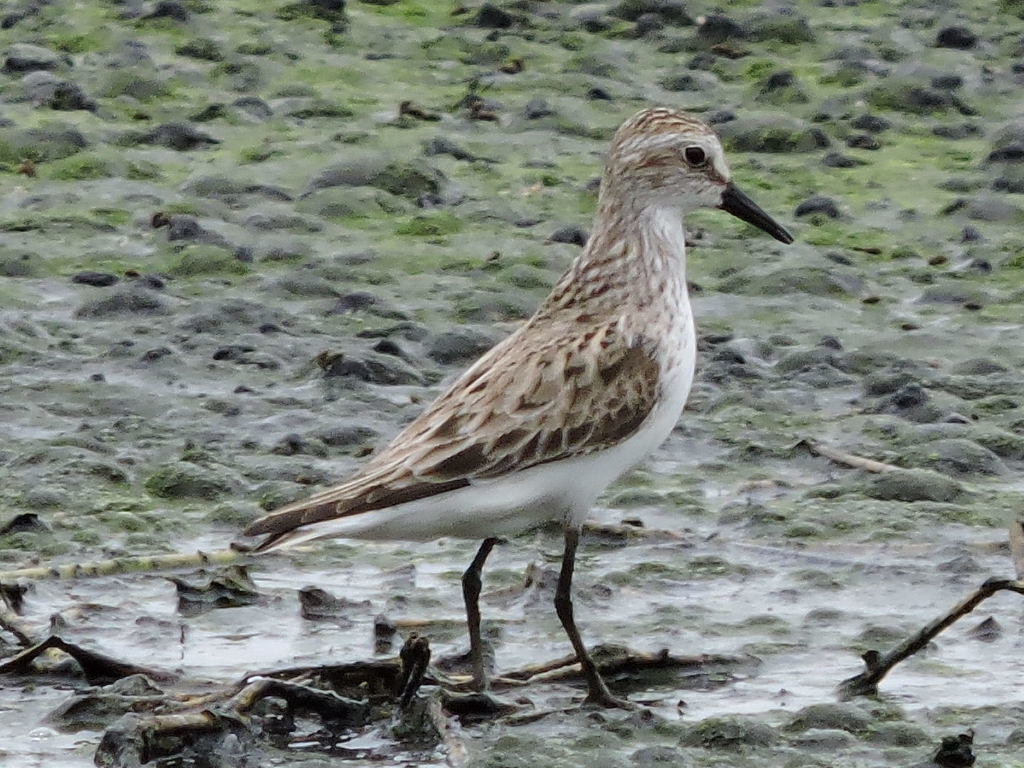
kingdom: Animalia
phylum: Chordata
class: Aves
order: Charadriiformes
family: Scolopacidae
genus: Calidris
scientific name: Calidris pusilla
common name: Semipalmated sandpiper
